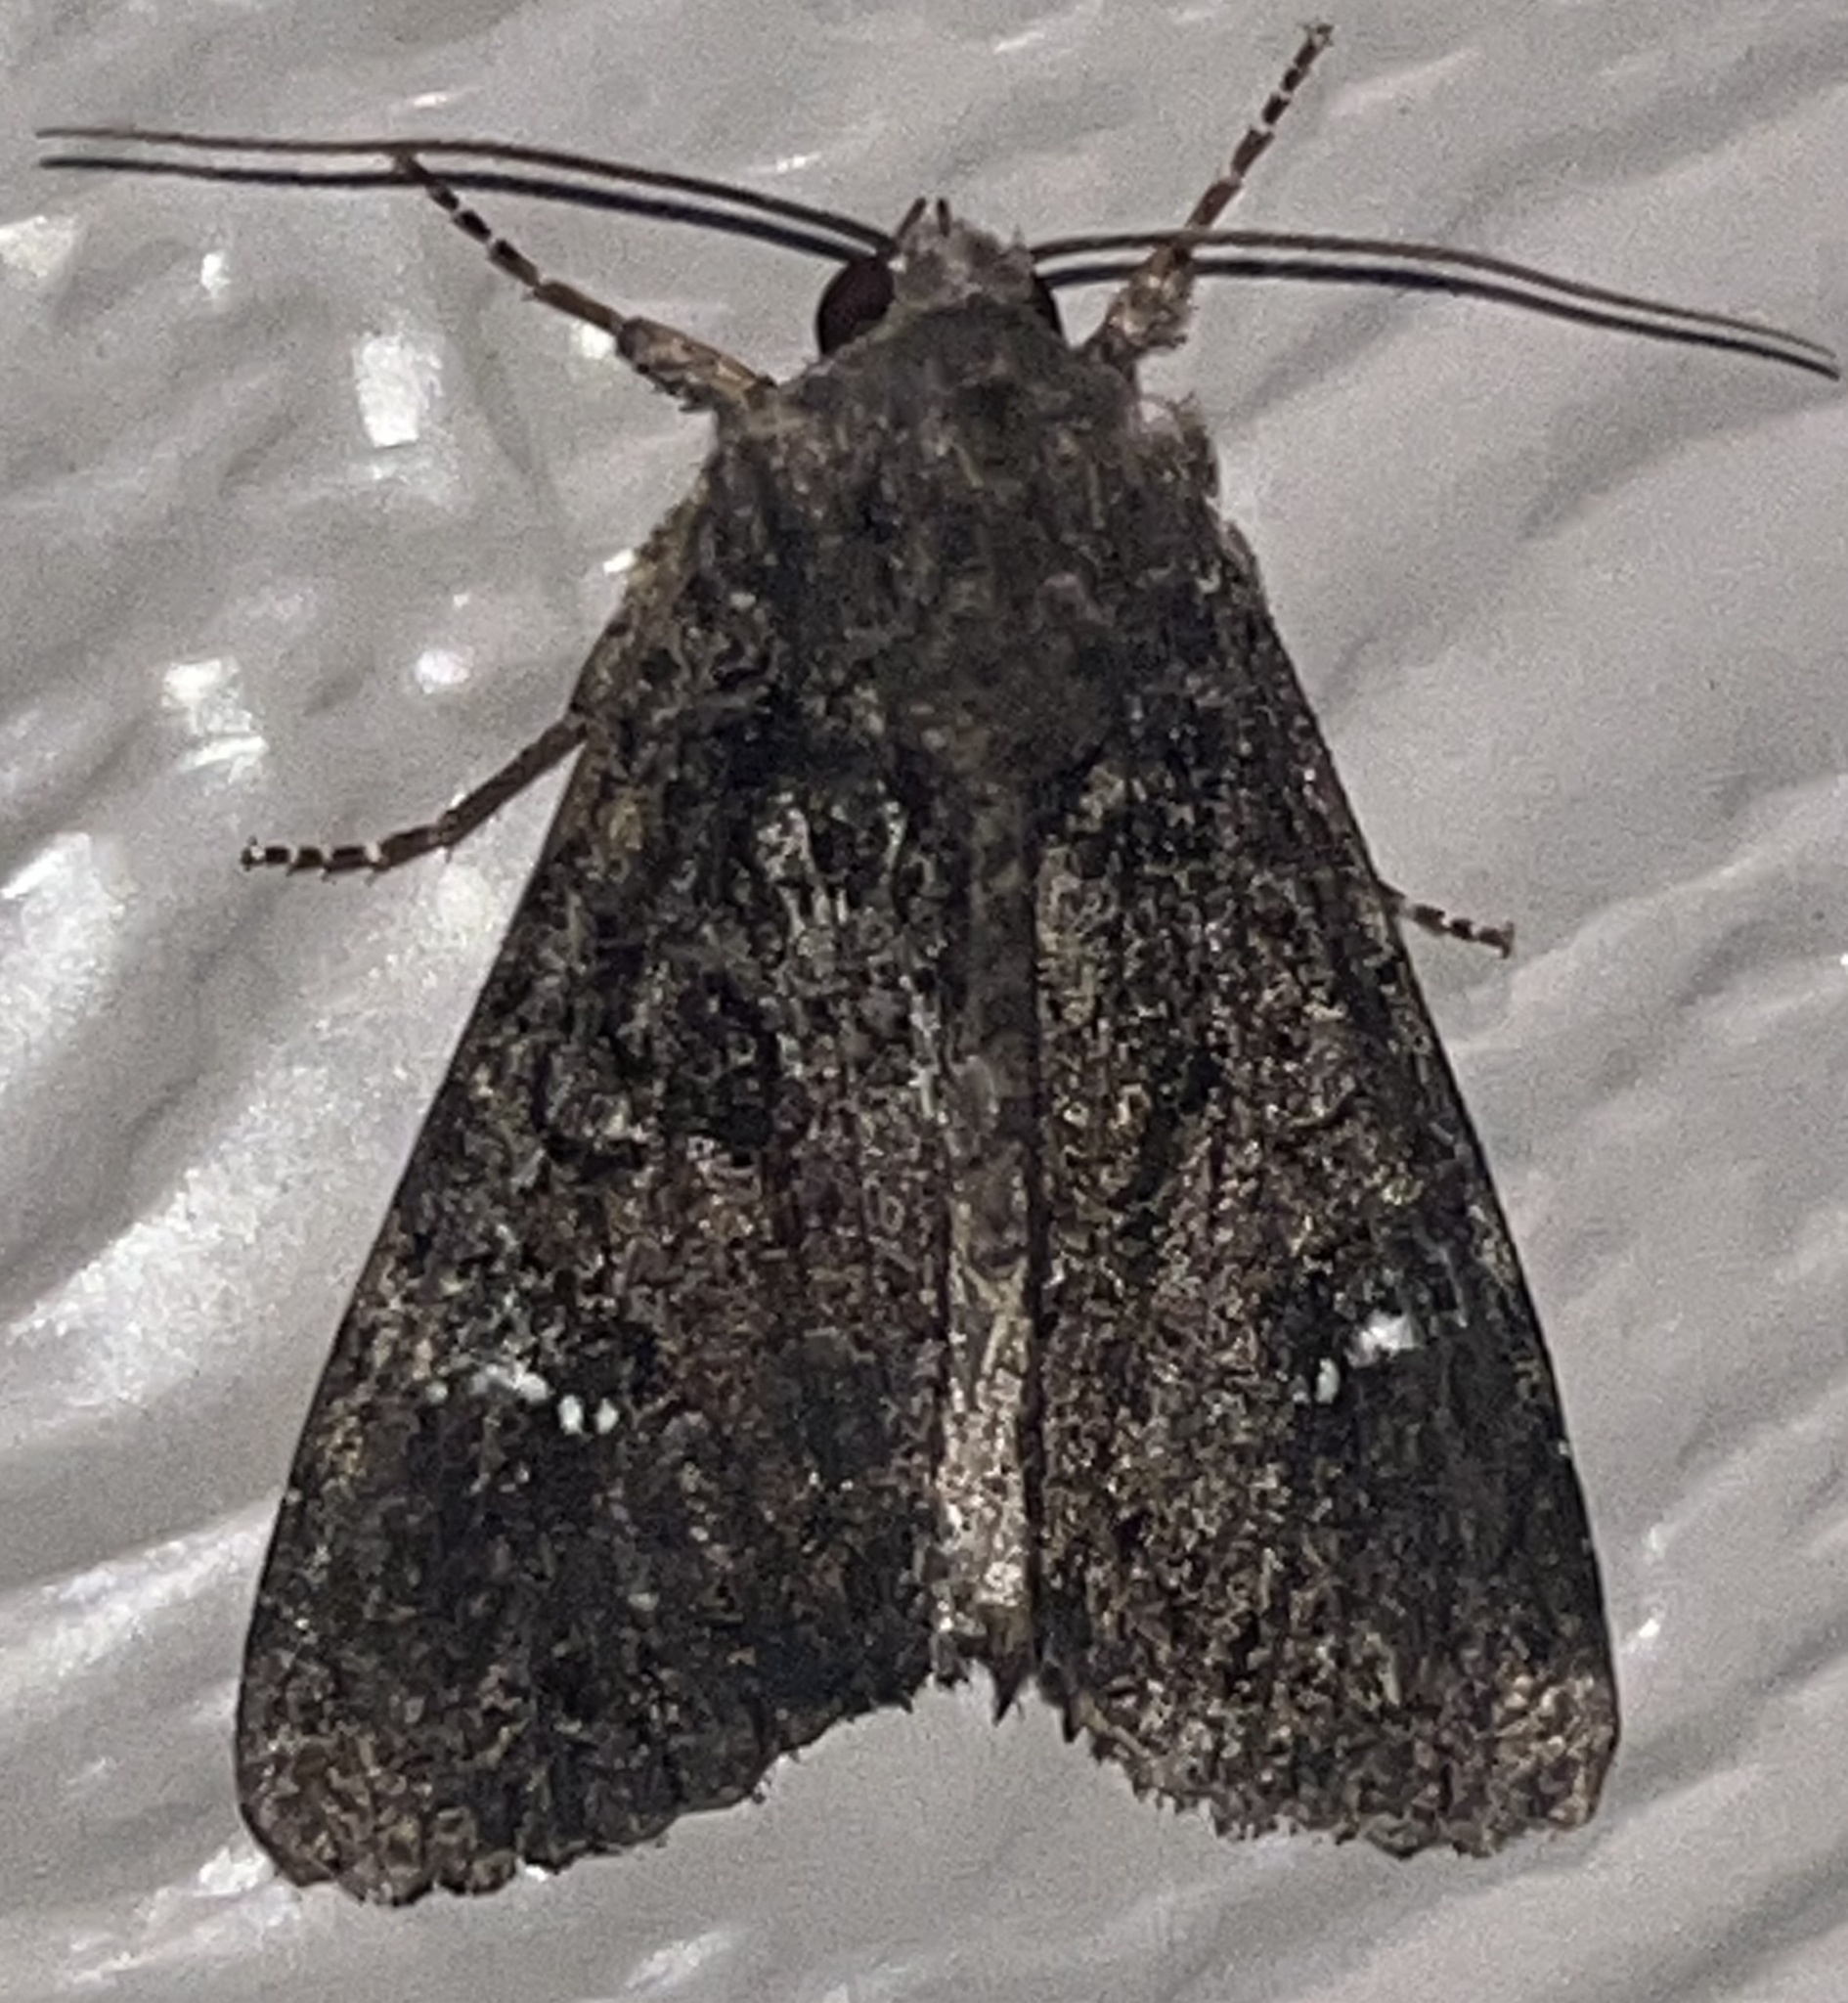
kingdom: Animalia
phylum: Arthropoda
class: Insecta
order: Lepidoptera
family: Noctuidae
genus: Apamea
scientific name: Apamea amputatrix
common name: Yellow-headed cutworm moth
